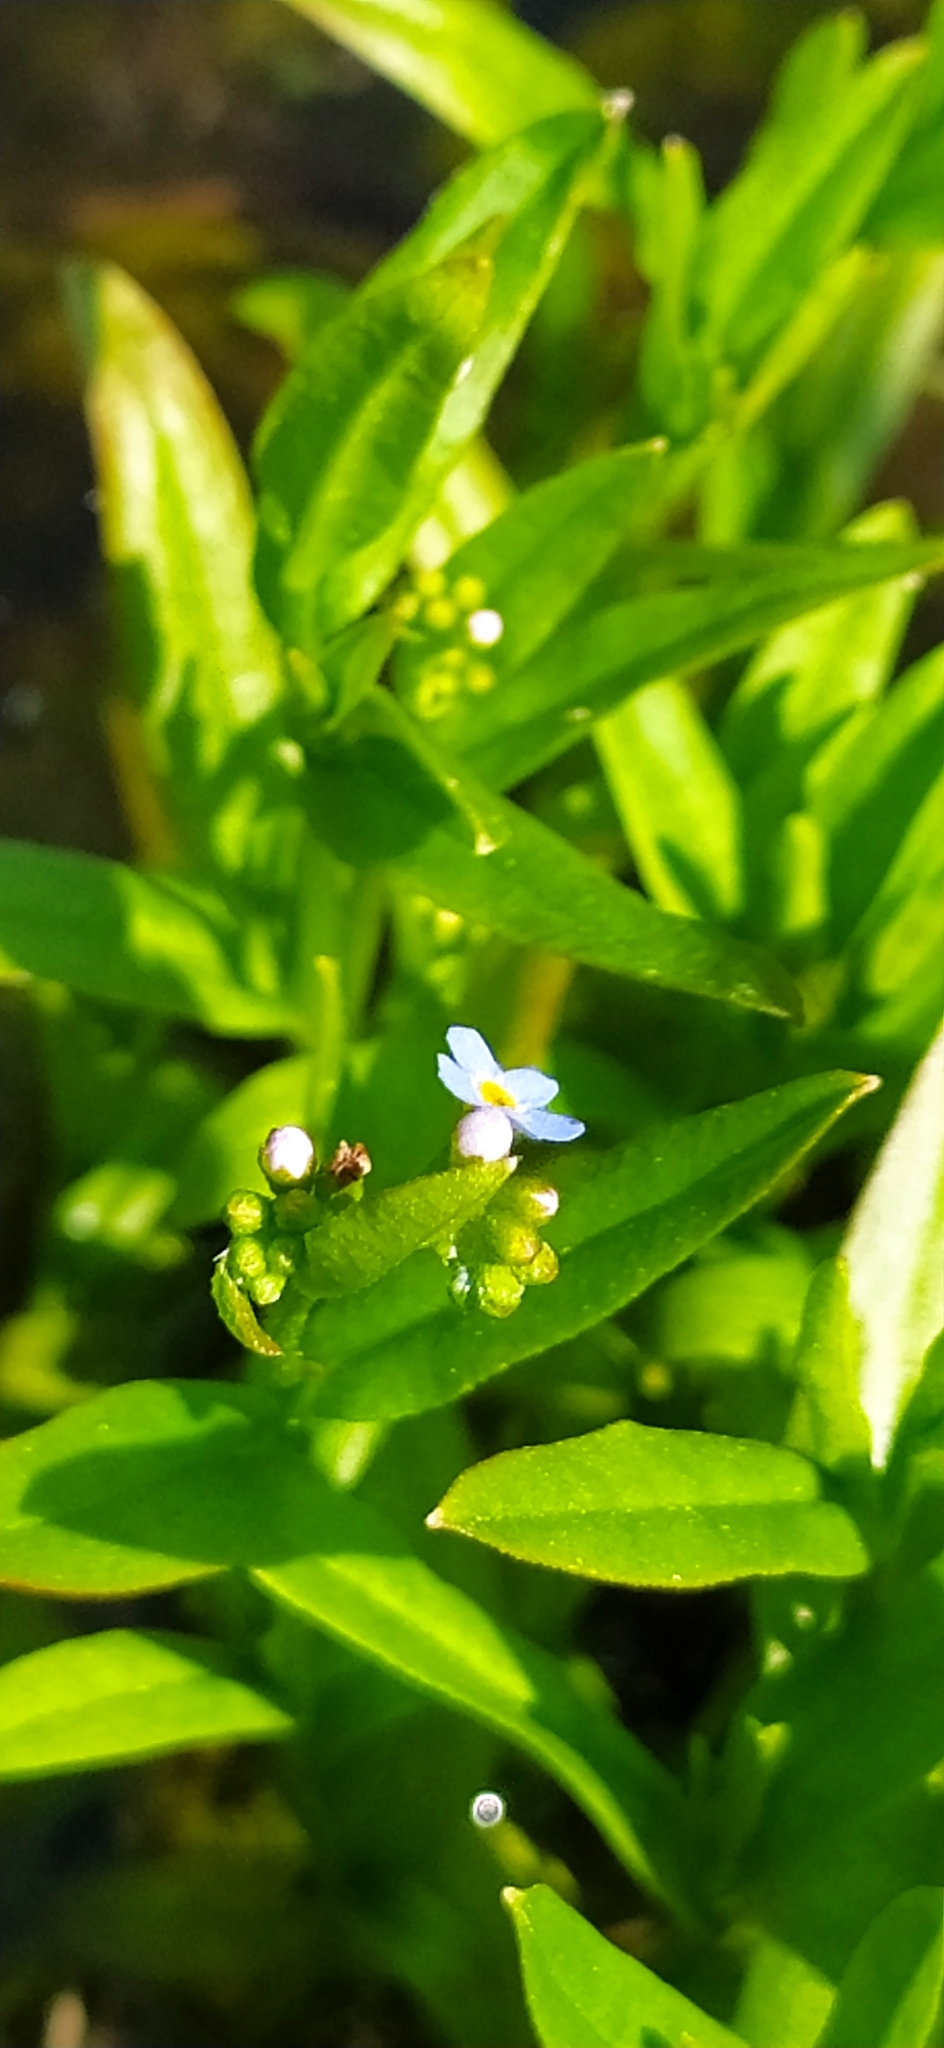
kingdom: Plantae
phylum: Tracheophyta
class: Magnoliopsida
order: Boraginales
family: Boraginaceae
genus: Myosotis
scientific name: Myosotis scorpioides
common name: Water forget-me-not
